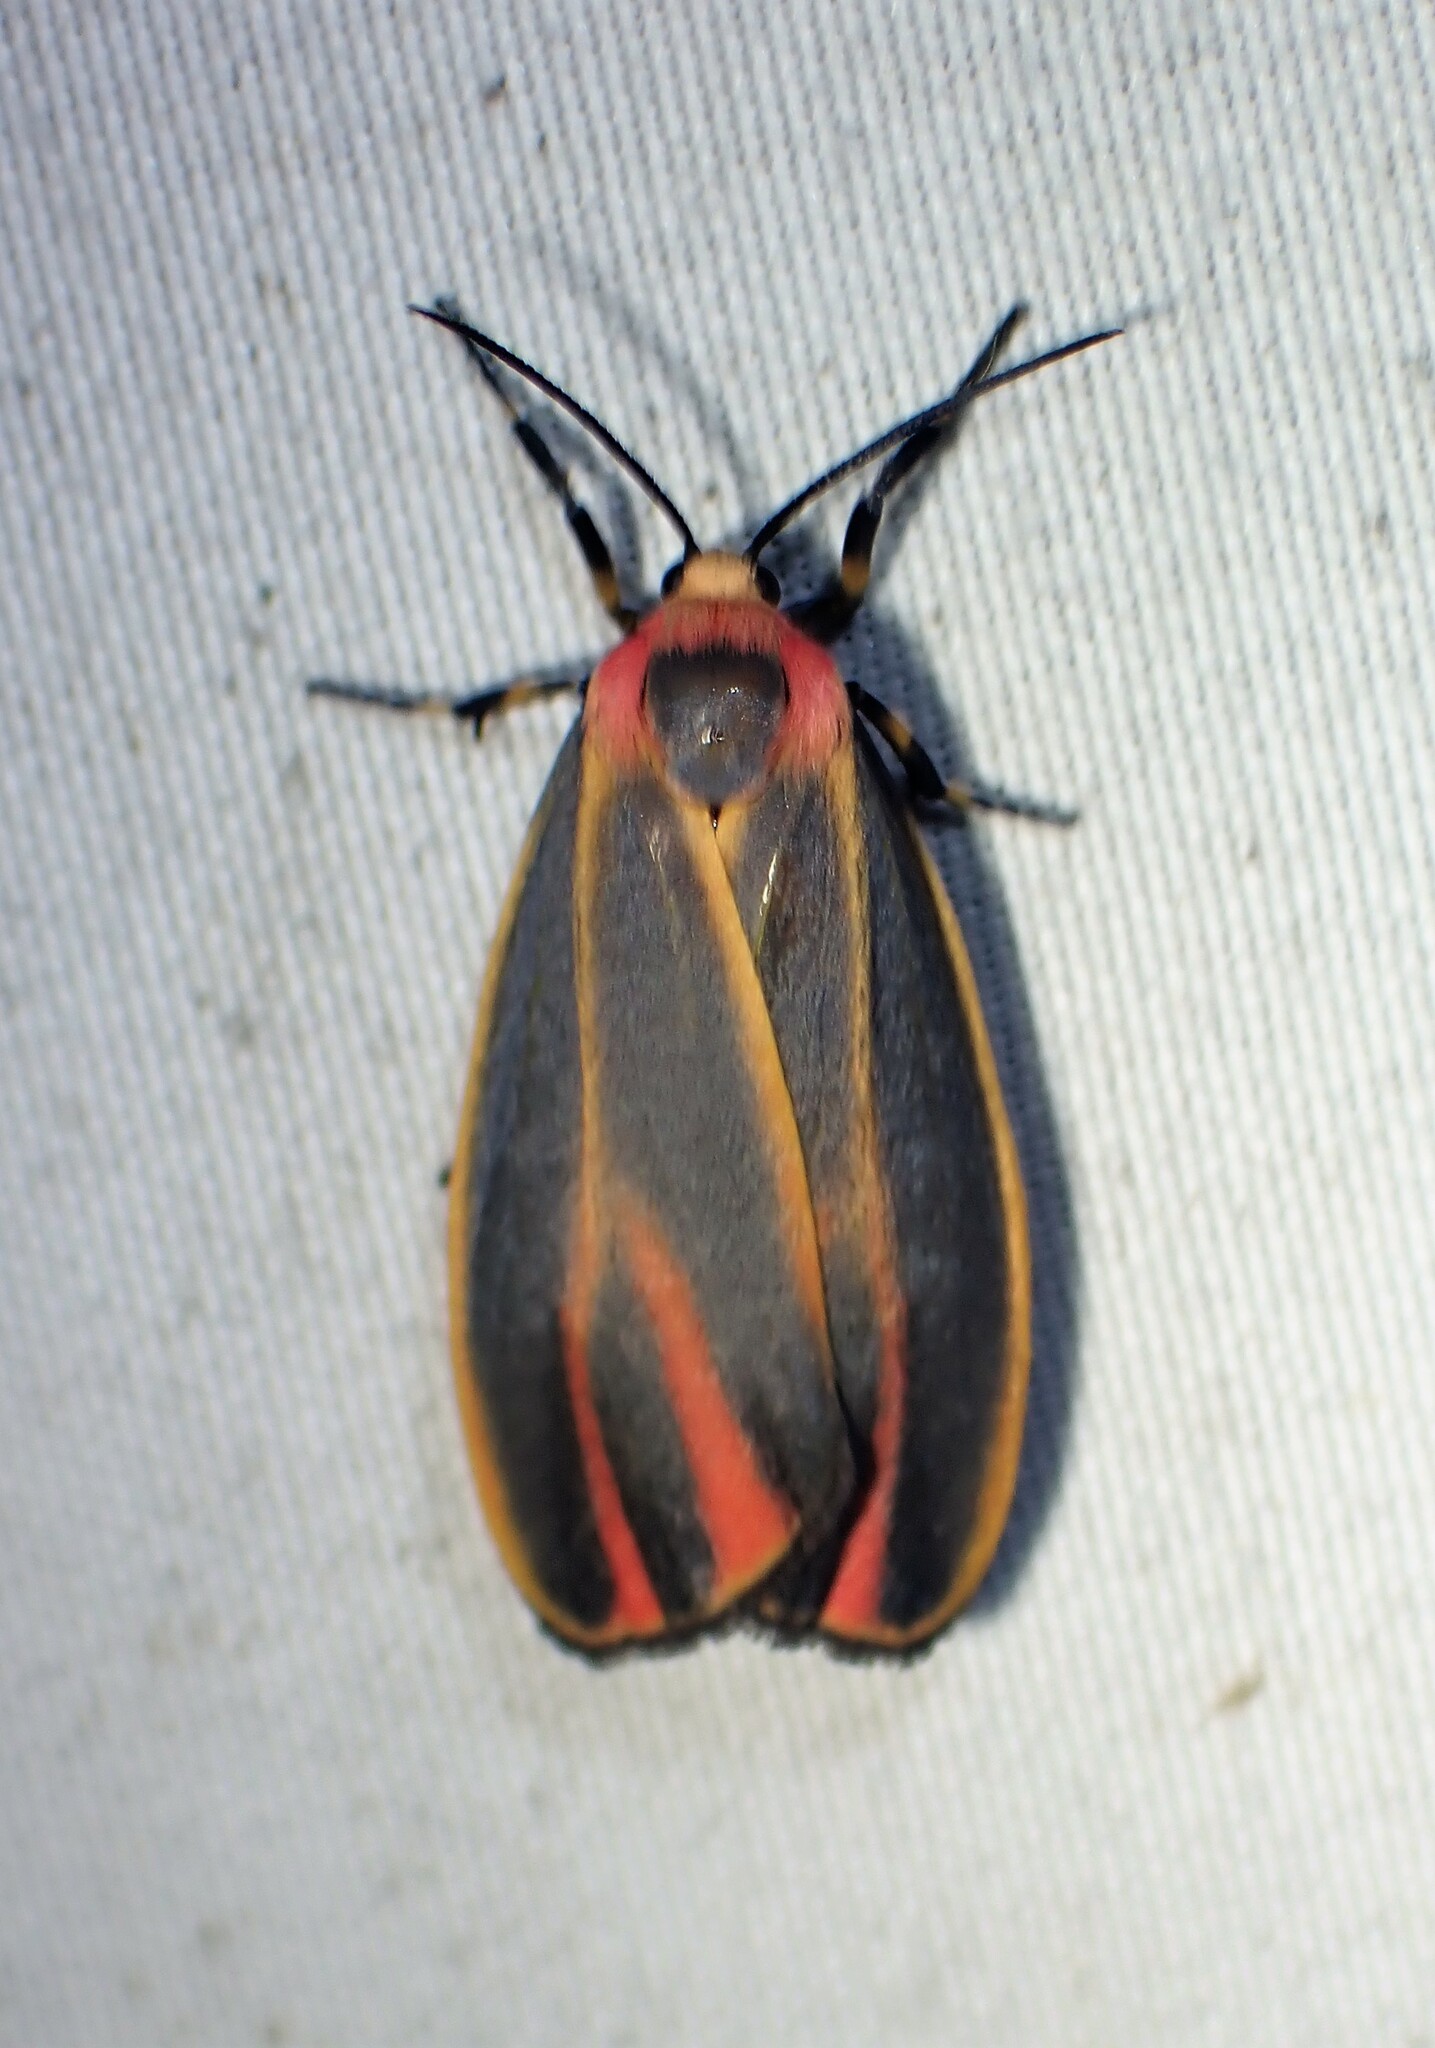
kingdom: Animalia
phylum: Arthropoda
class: Insecta
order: Lepidoptera
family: Erebidae
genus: Hypoprepia
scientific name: Hypoprepia fucosa
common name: Painted lichen moth
